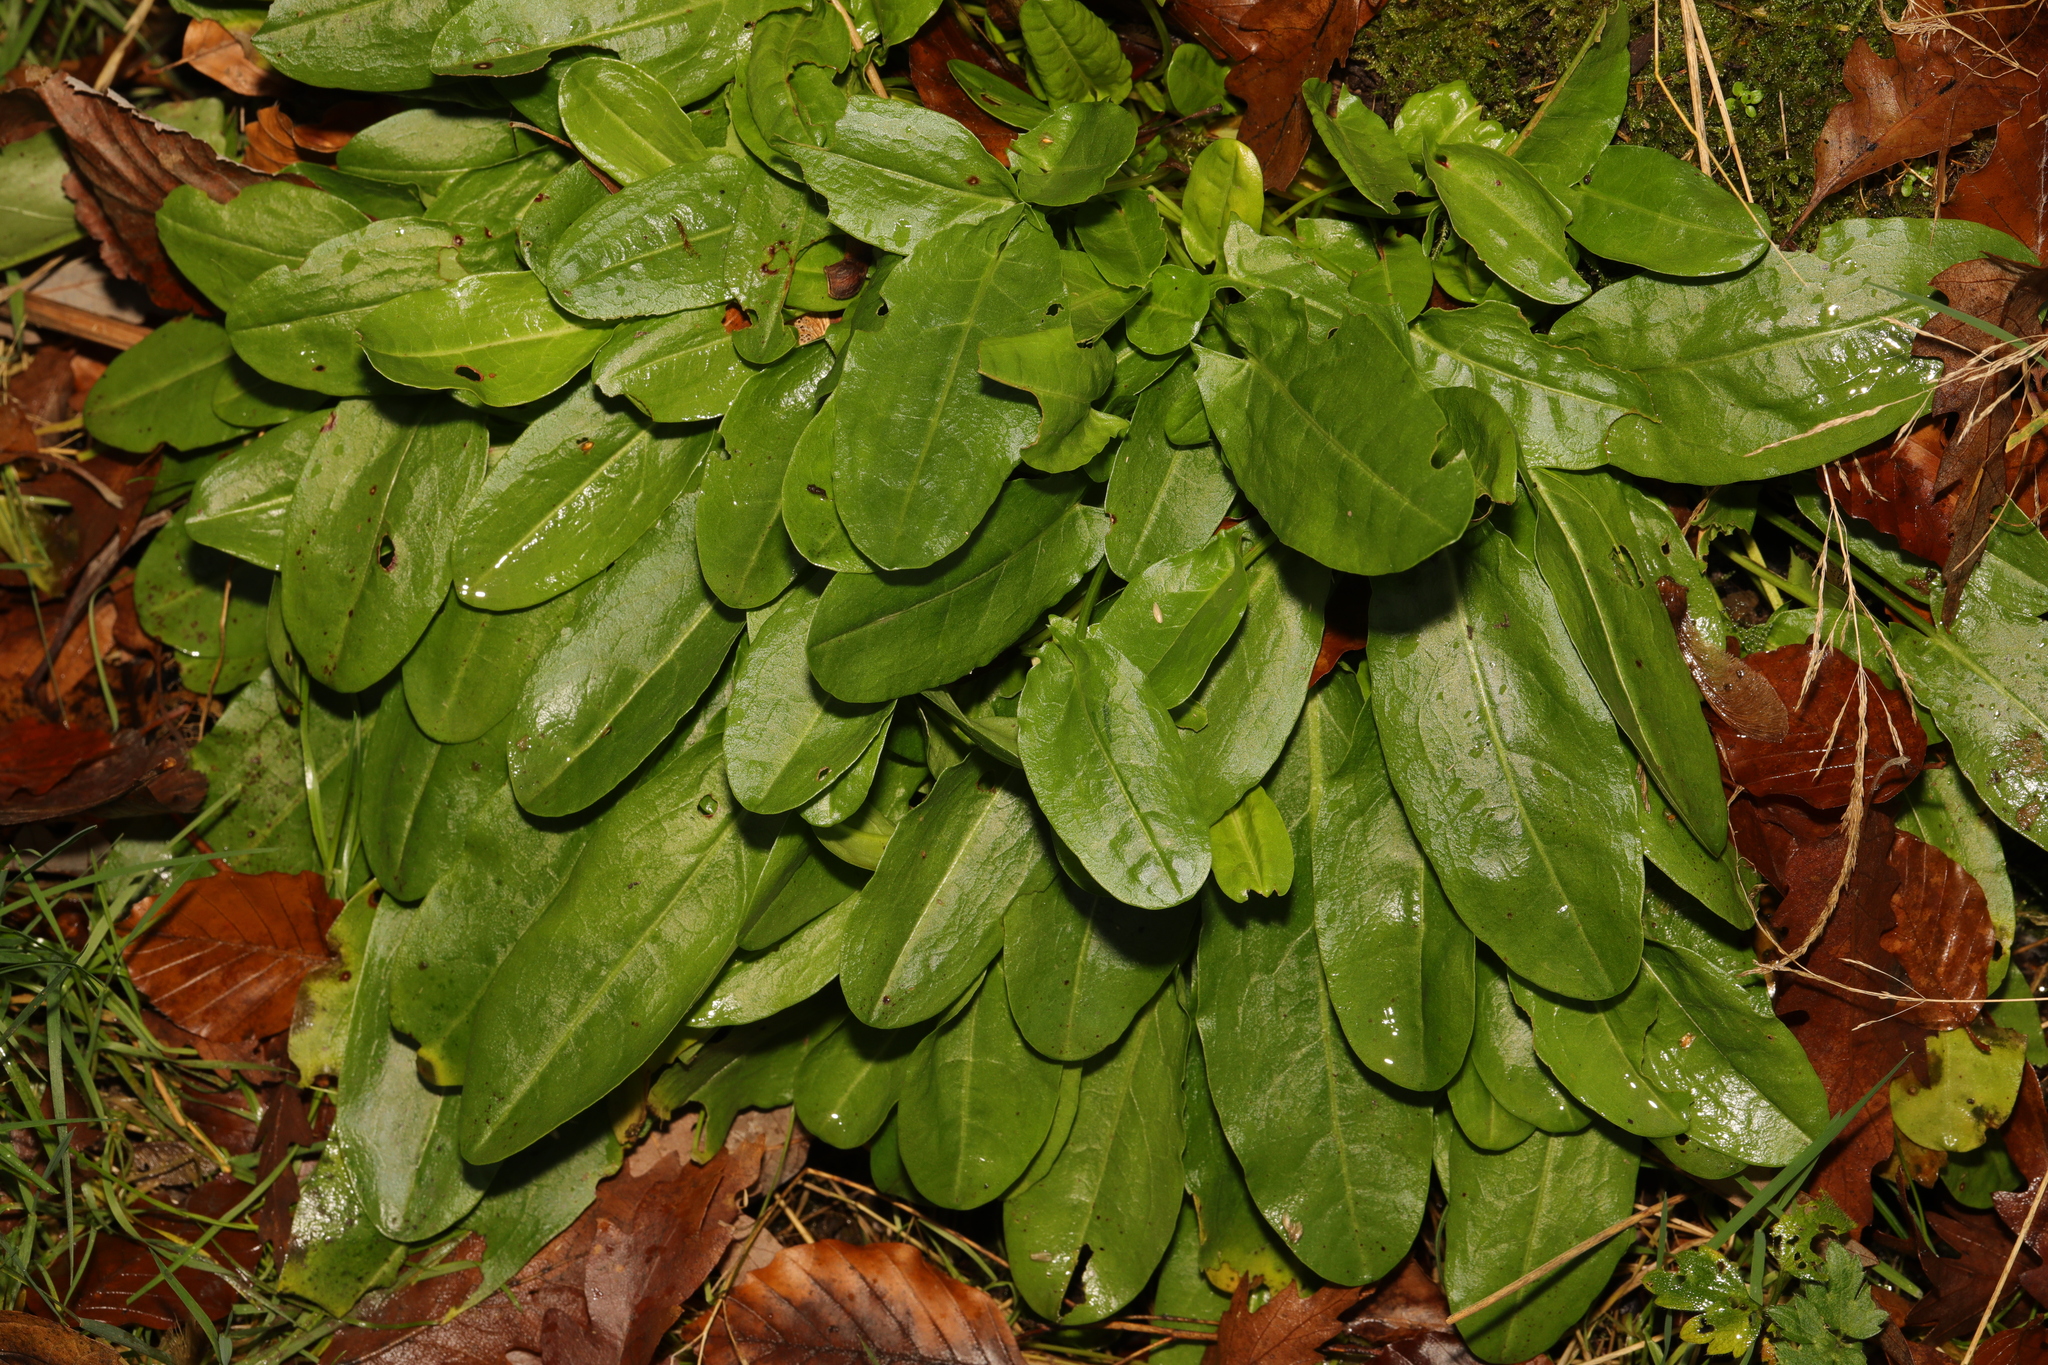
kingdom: Plantae
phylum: Tracheophyta
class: Magnoliopsida
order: Caryophyllales
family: Polygonaceae
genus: Rumex
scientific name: Rumex acetosa
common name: Garden sorrel
